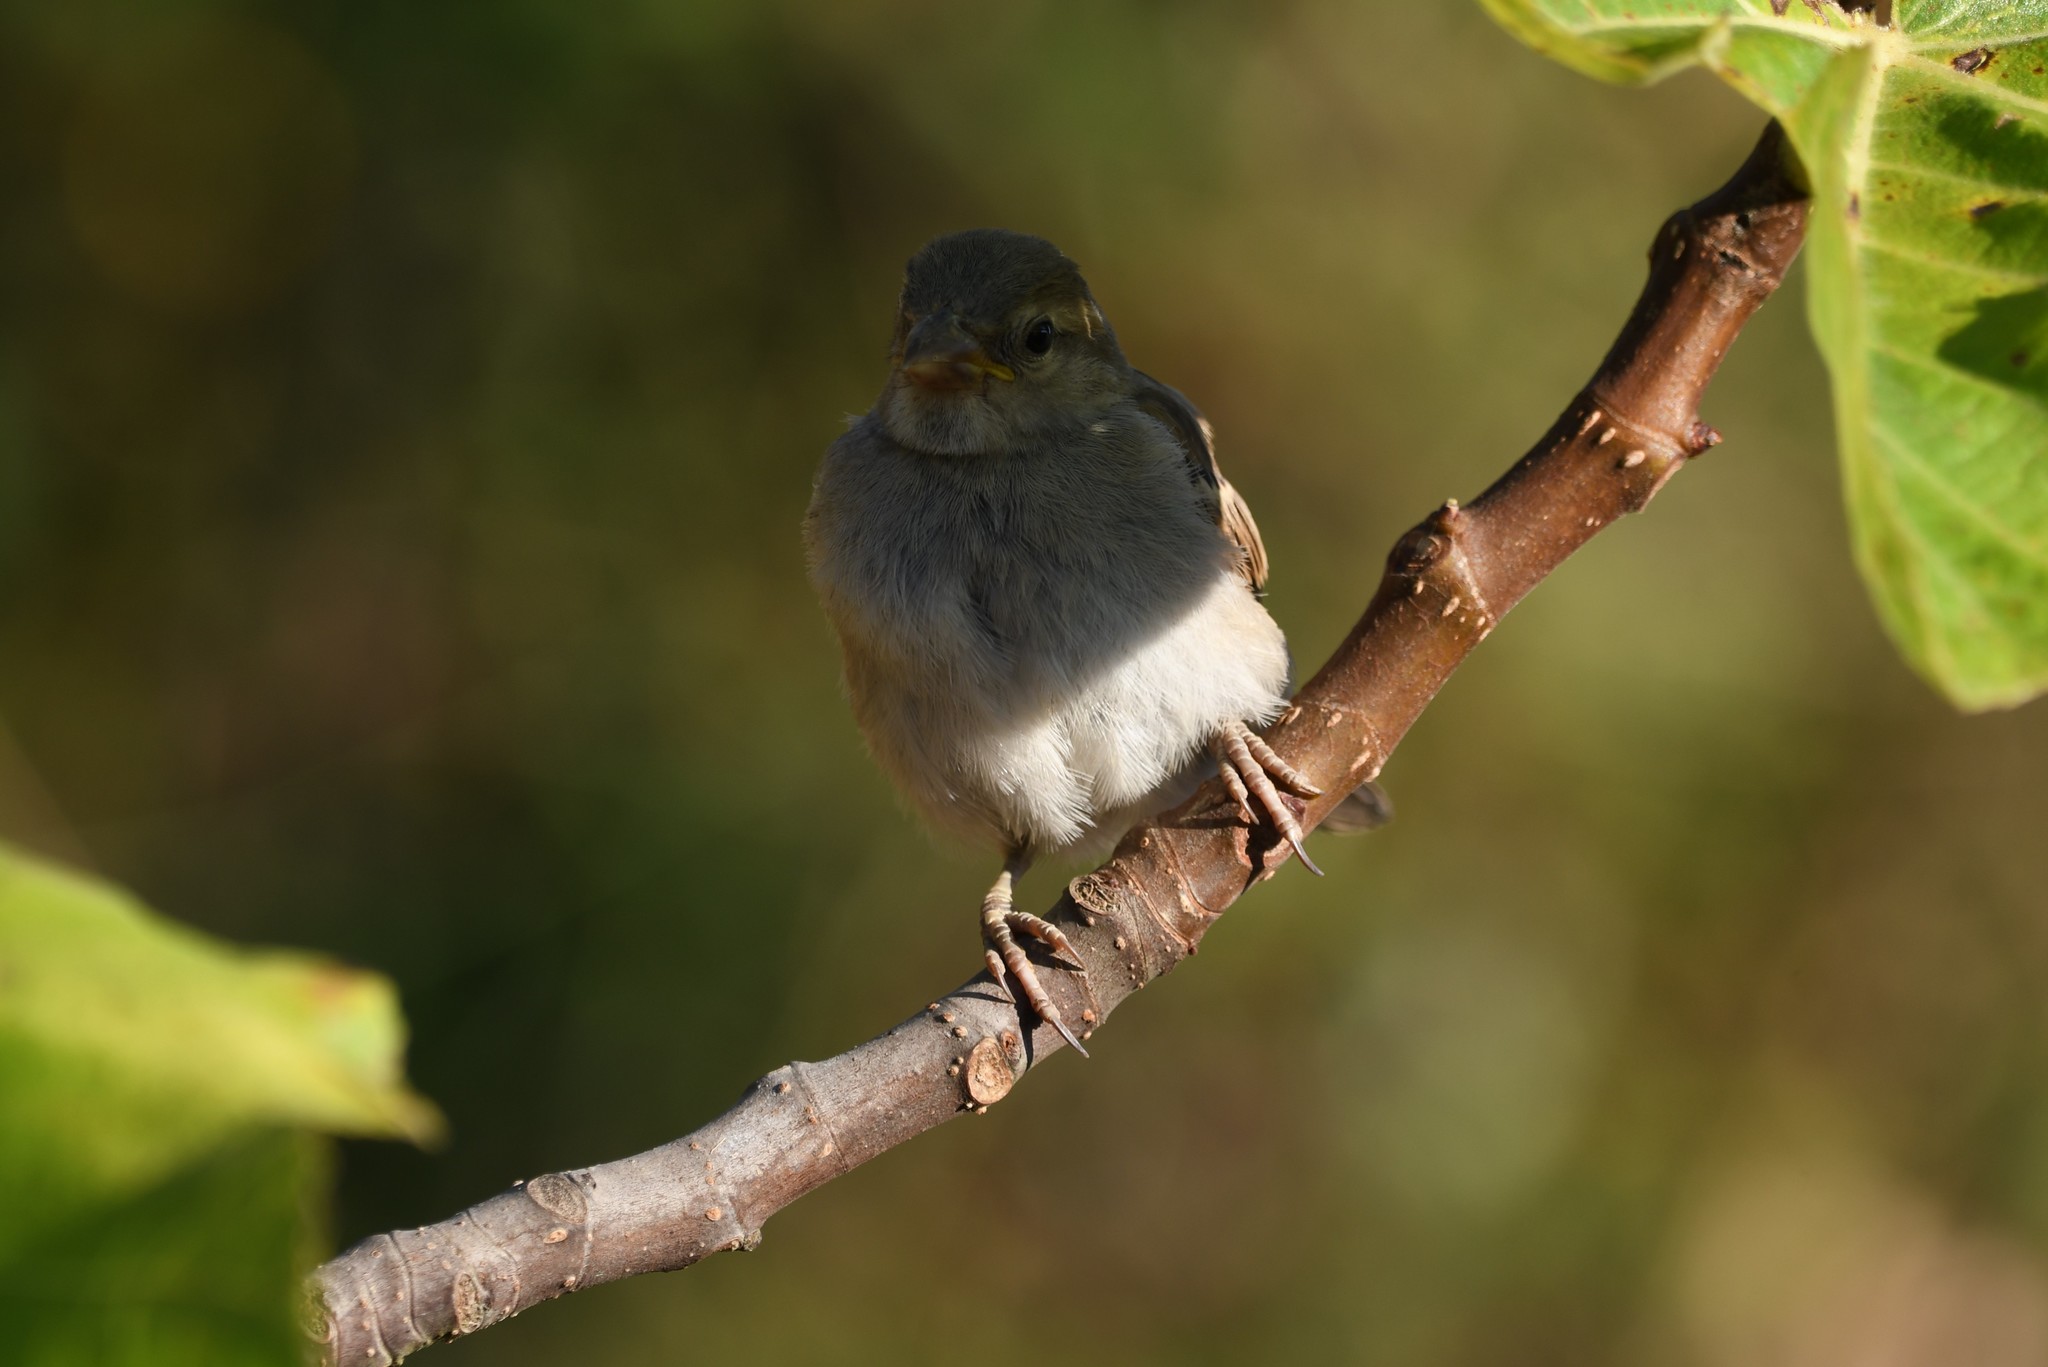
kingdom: Animalia
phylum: Chordata
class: Aves
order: Passeriformes
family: Passeridae
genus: Passer
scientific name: Passer domesticus
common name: House sparrow
